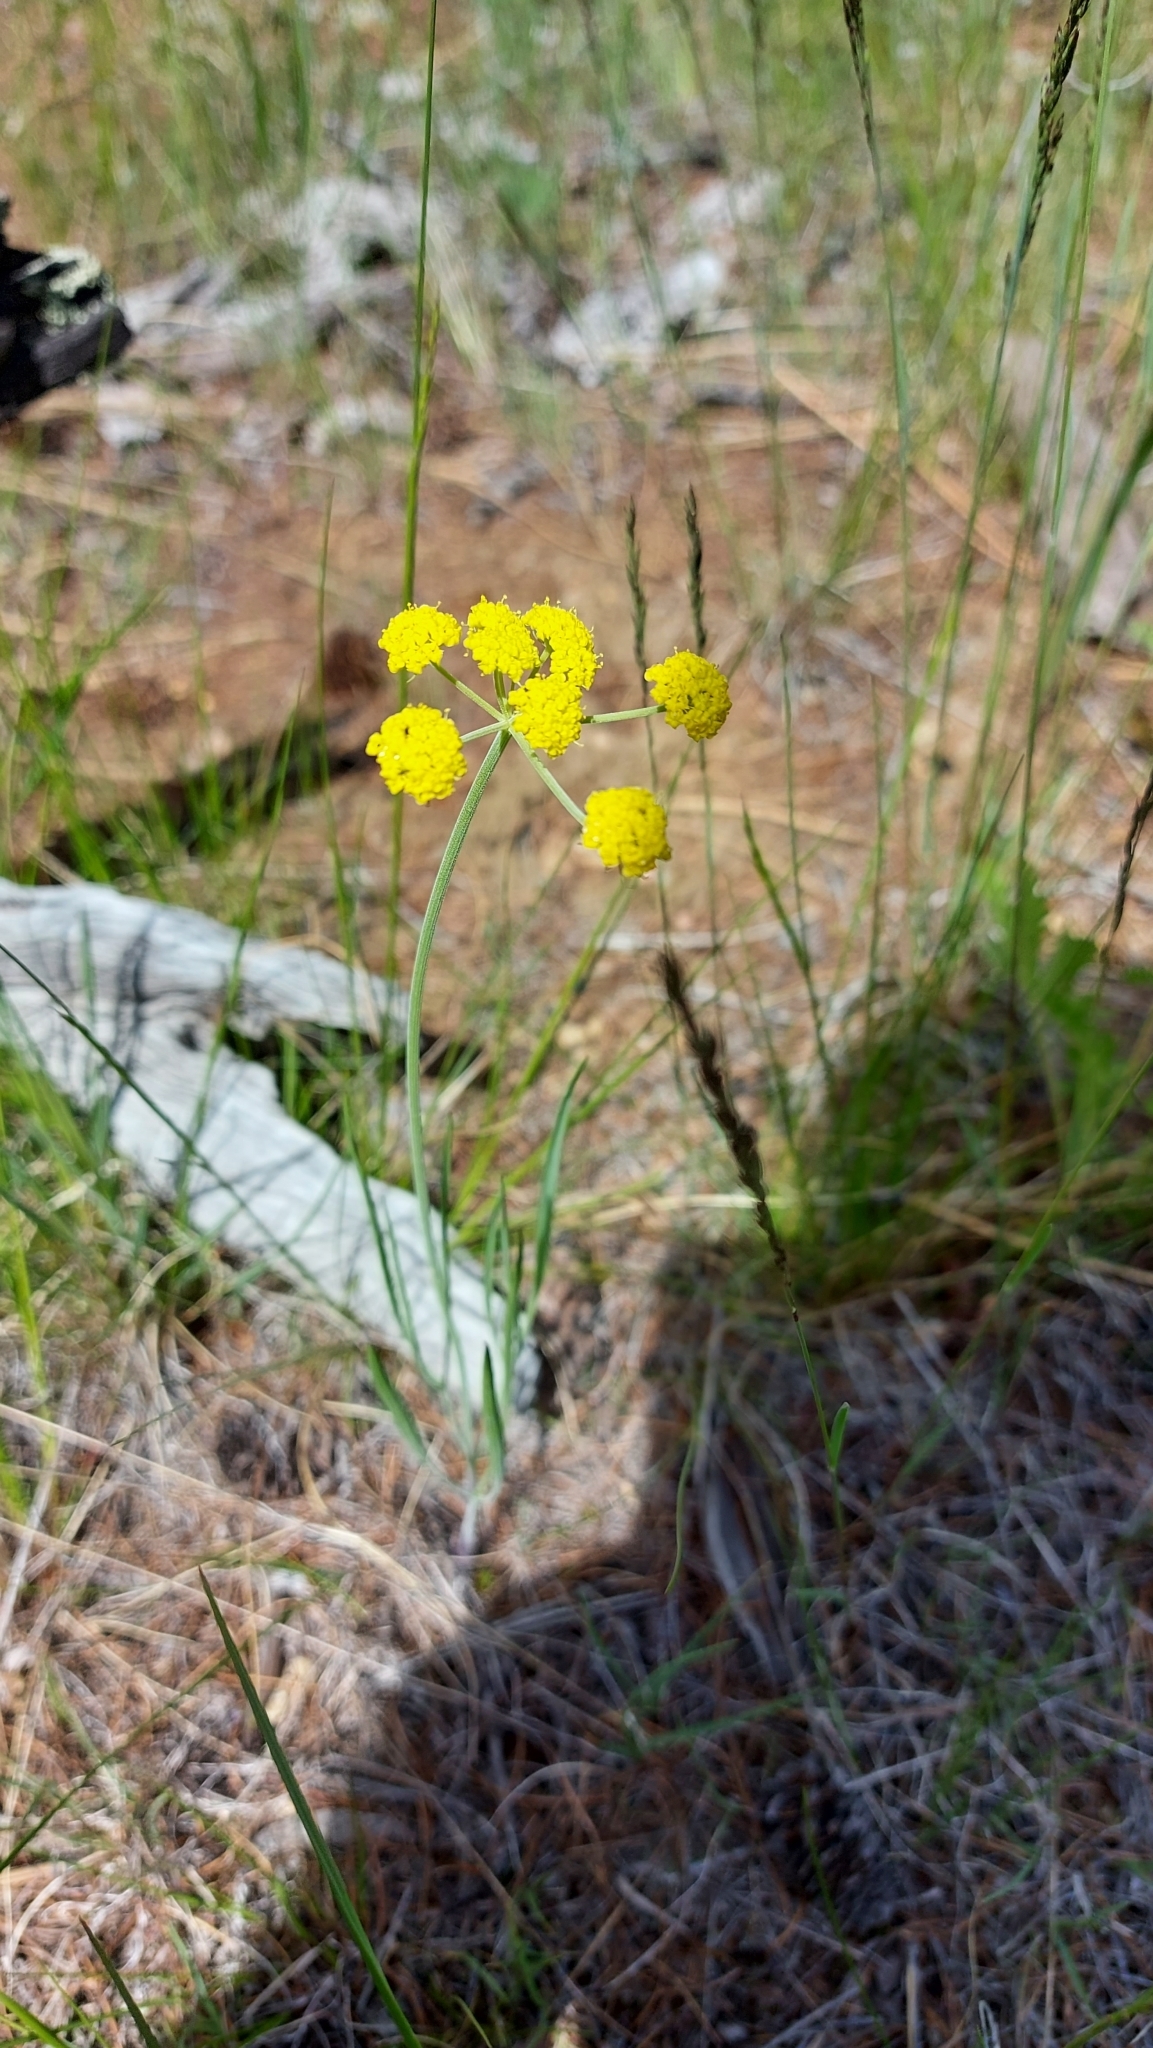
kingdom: Plantae
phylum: Tracheophyta
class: Magnoliopsida
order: Apiales
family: Apiaceae
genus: Lomatium
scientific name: Lomatium triternatum
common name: Ternate lomatium
